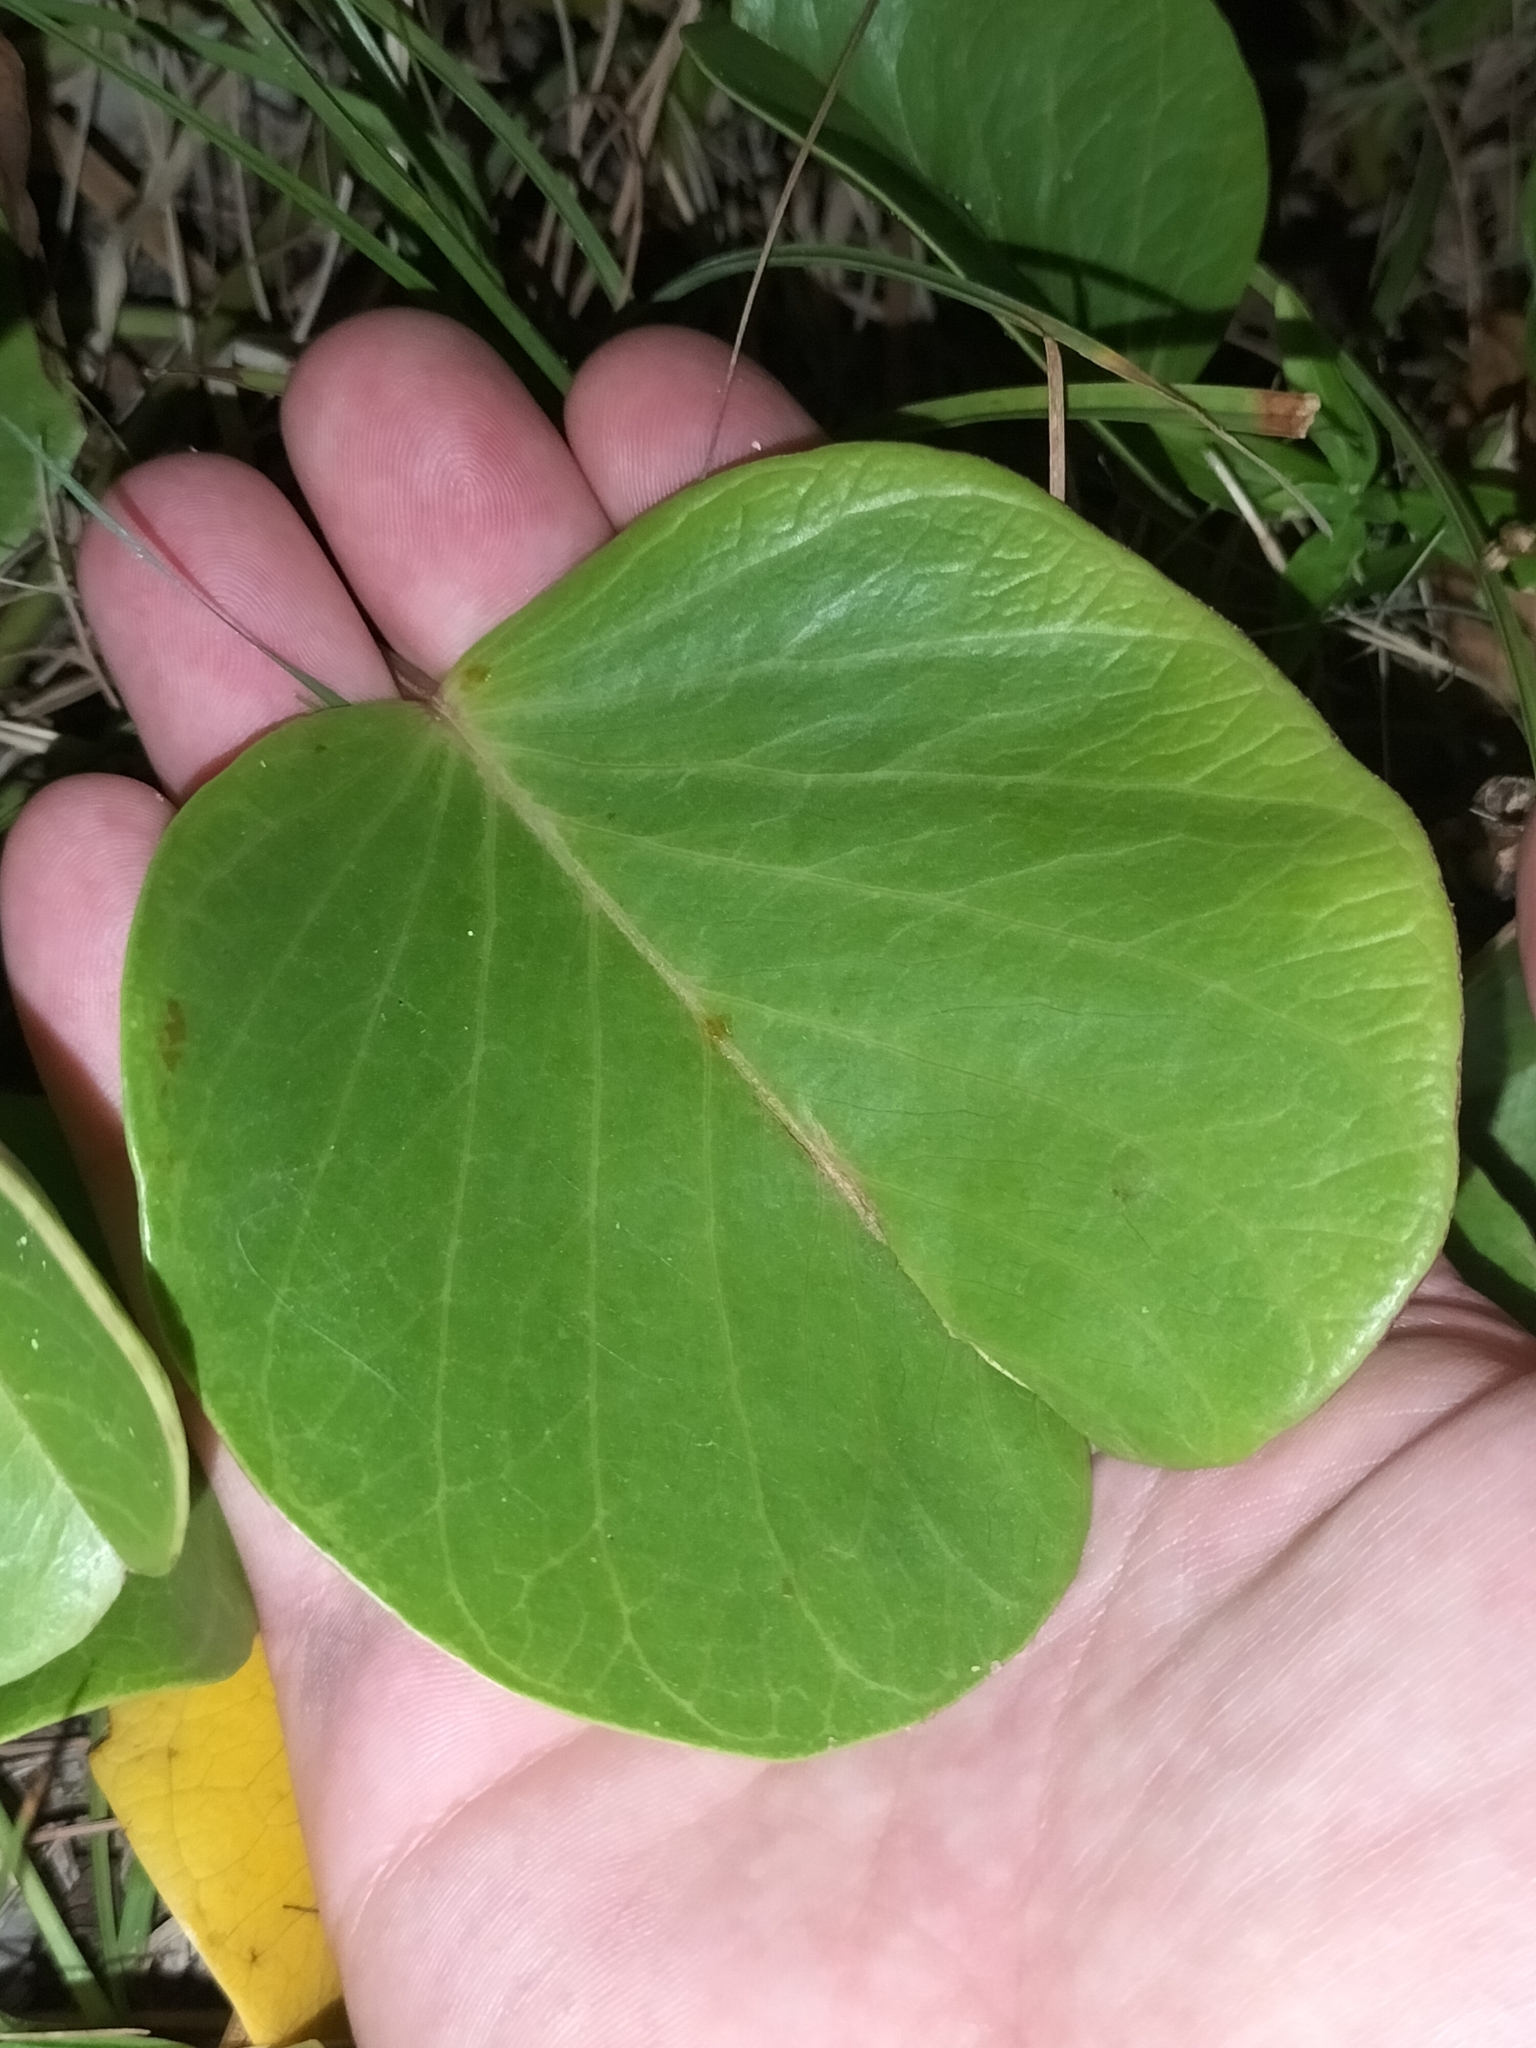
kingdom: Plantae
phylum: Tracheophyta
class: Magnoliopsida
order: Solanales
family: Convolvulaceae
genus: Ipomoea
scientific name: Ipomoea pes-caprae
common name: Beach morning glory
